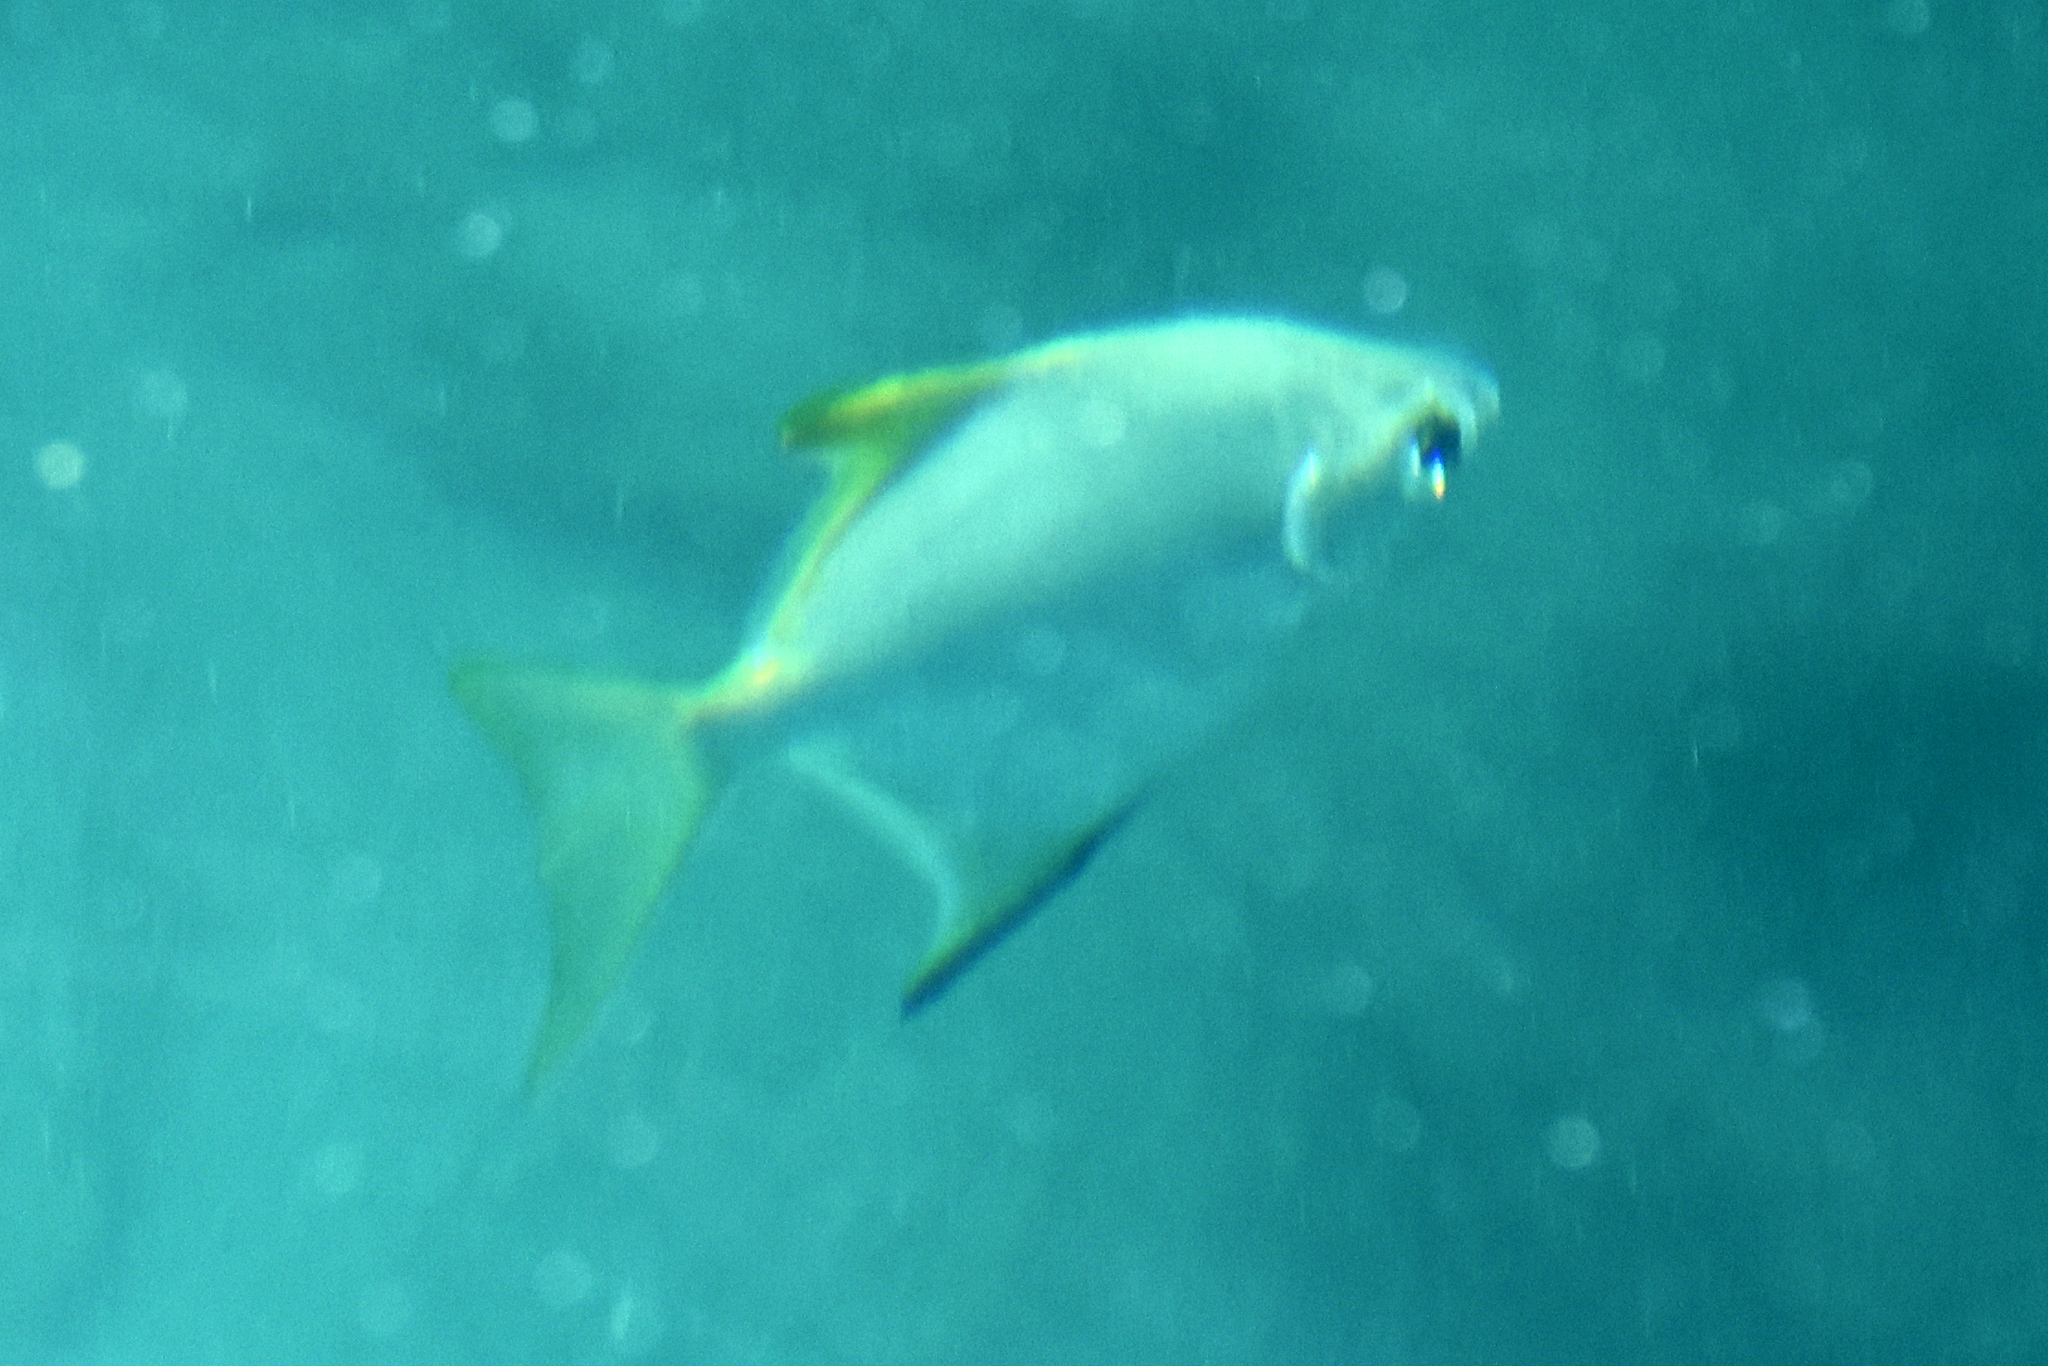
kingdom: Animalia
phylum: Chordata
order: Perciformes
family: Monodactylidae
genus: Monodactylus
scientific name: Monodactylus argenteus
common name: Silver moony
